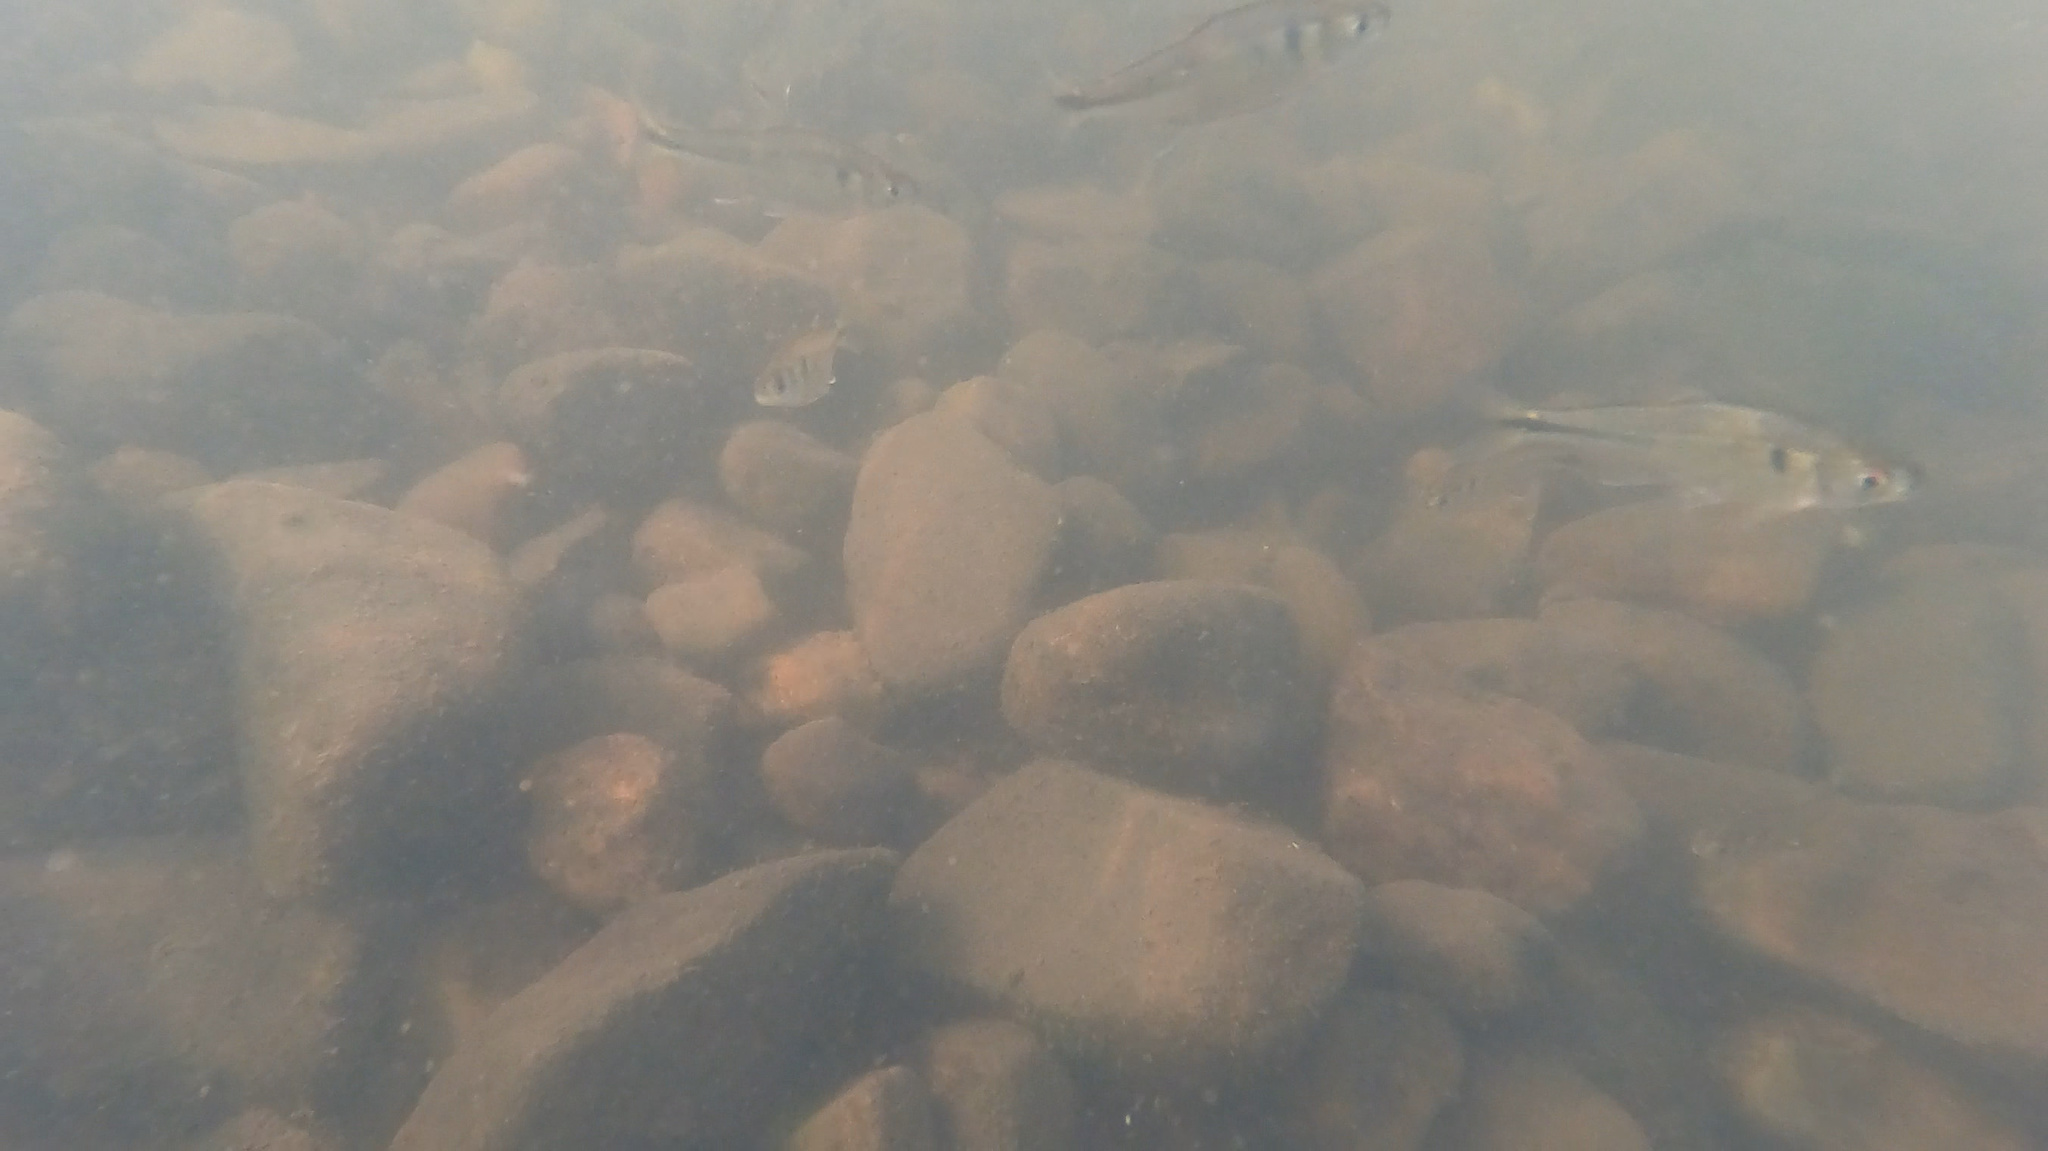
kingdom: Animalia
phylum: Chordata
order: Characiformes
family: Characidae
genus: Bryconamericus
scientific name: Bryconamericus iheringii
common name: Tetra
